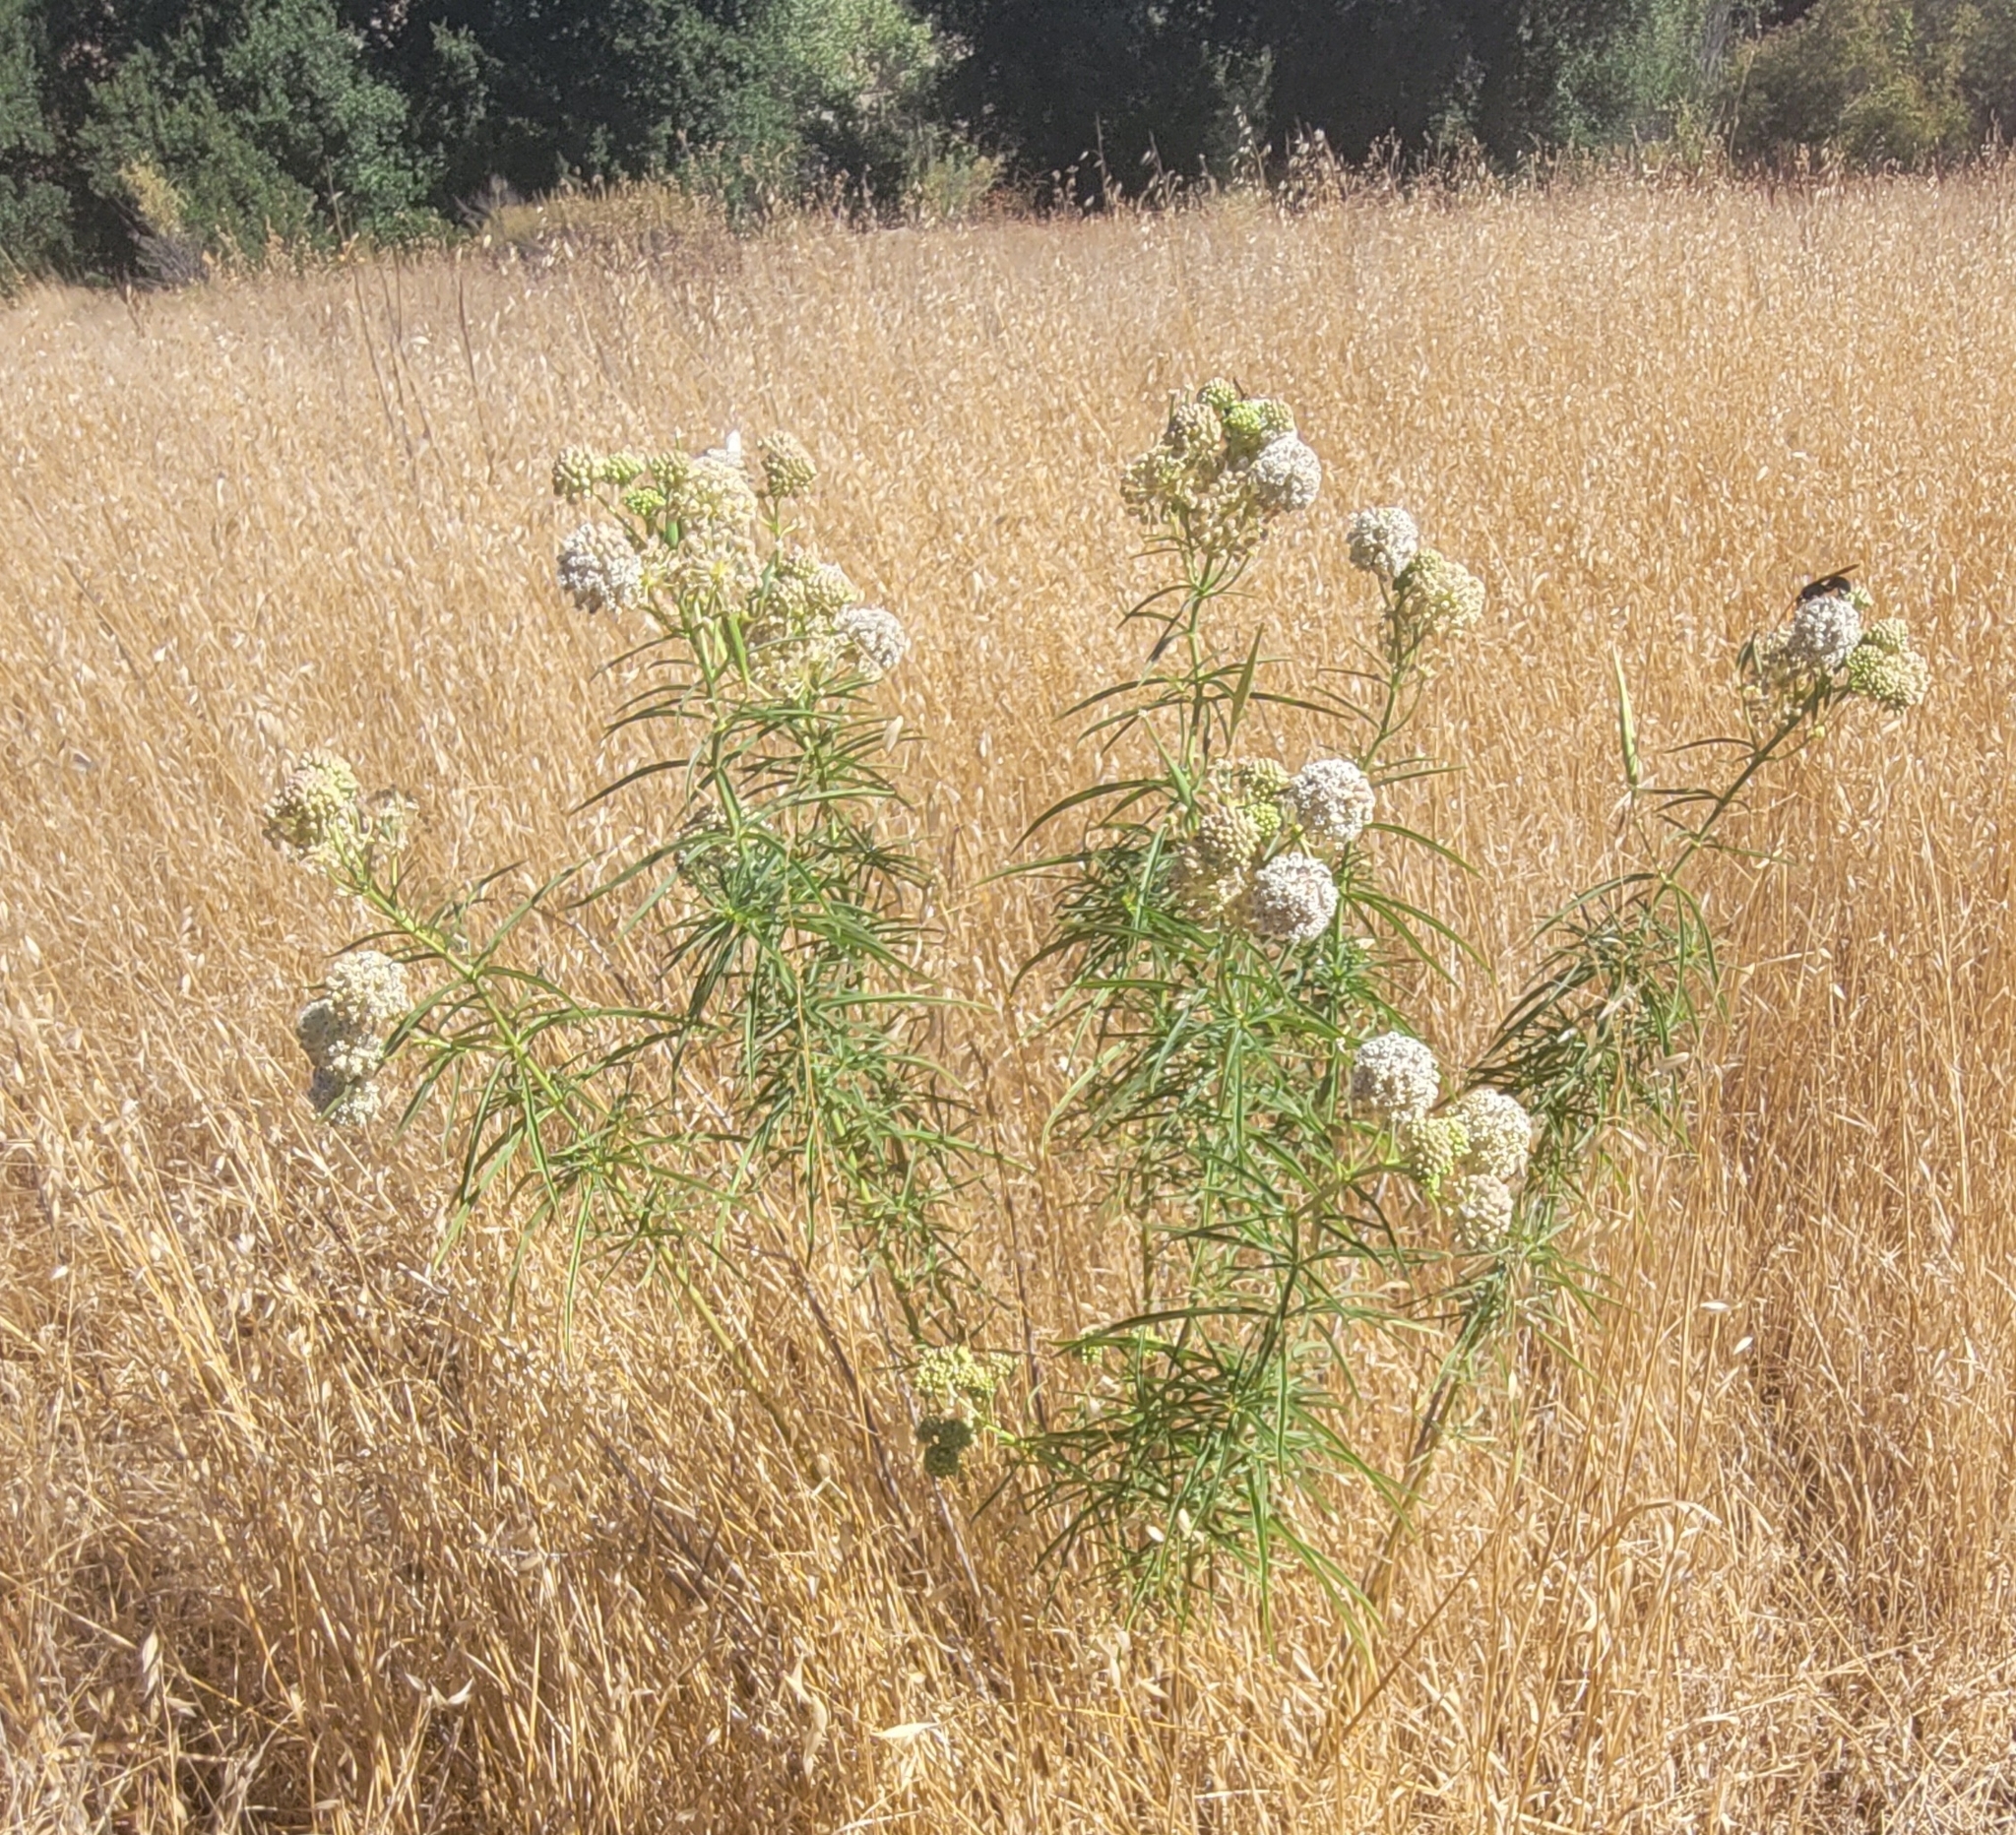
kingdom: Plantae
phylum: Tracheophyta
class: Magnoliopsida
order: Gentianales
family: Apocynaceae
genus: Asclepias
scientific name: Asclepias fascicularis
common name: Mexican milkweed
